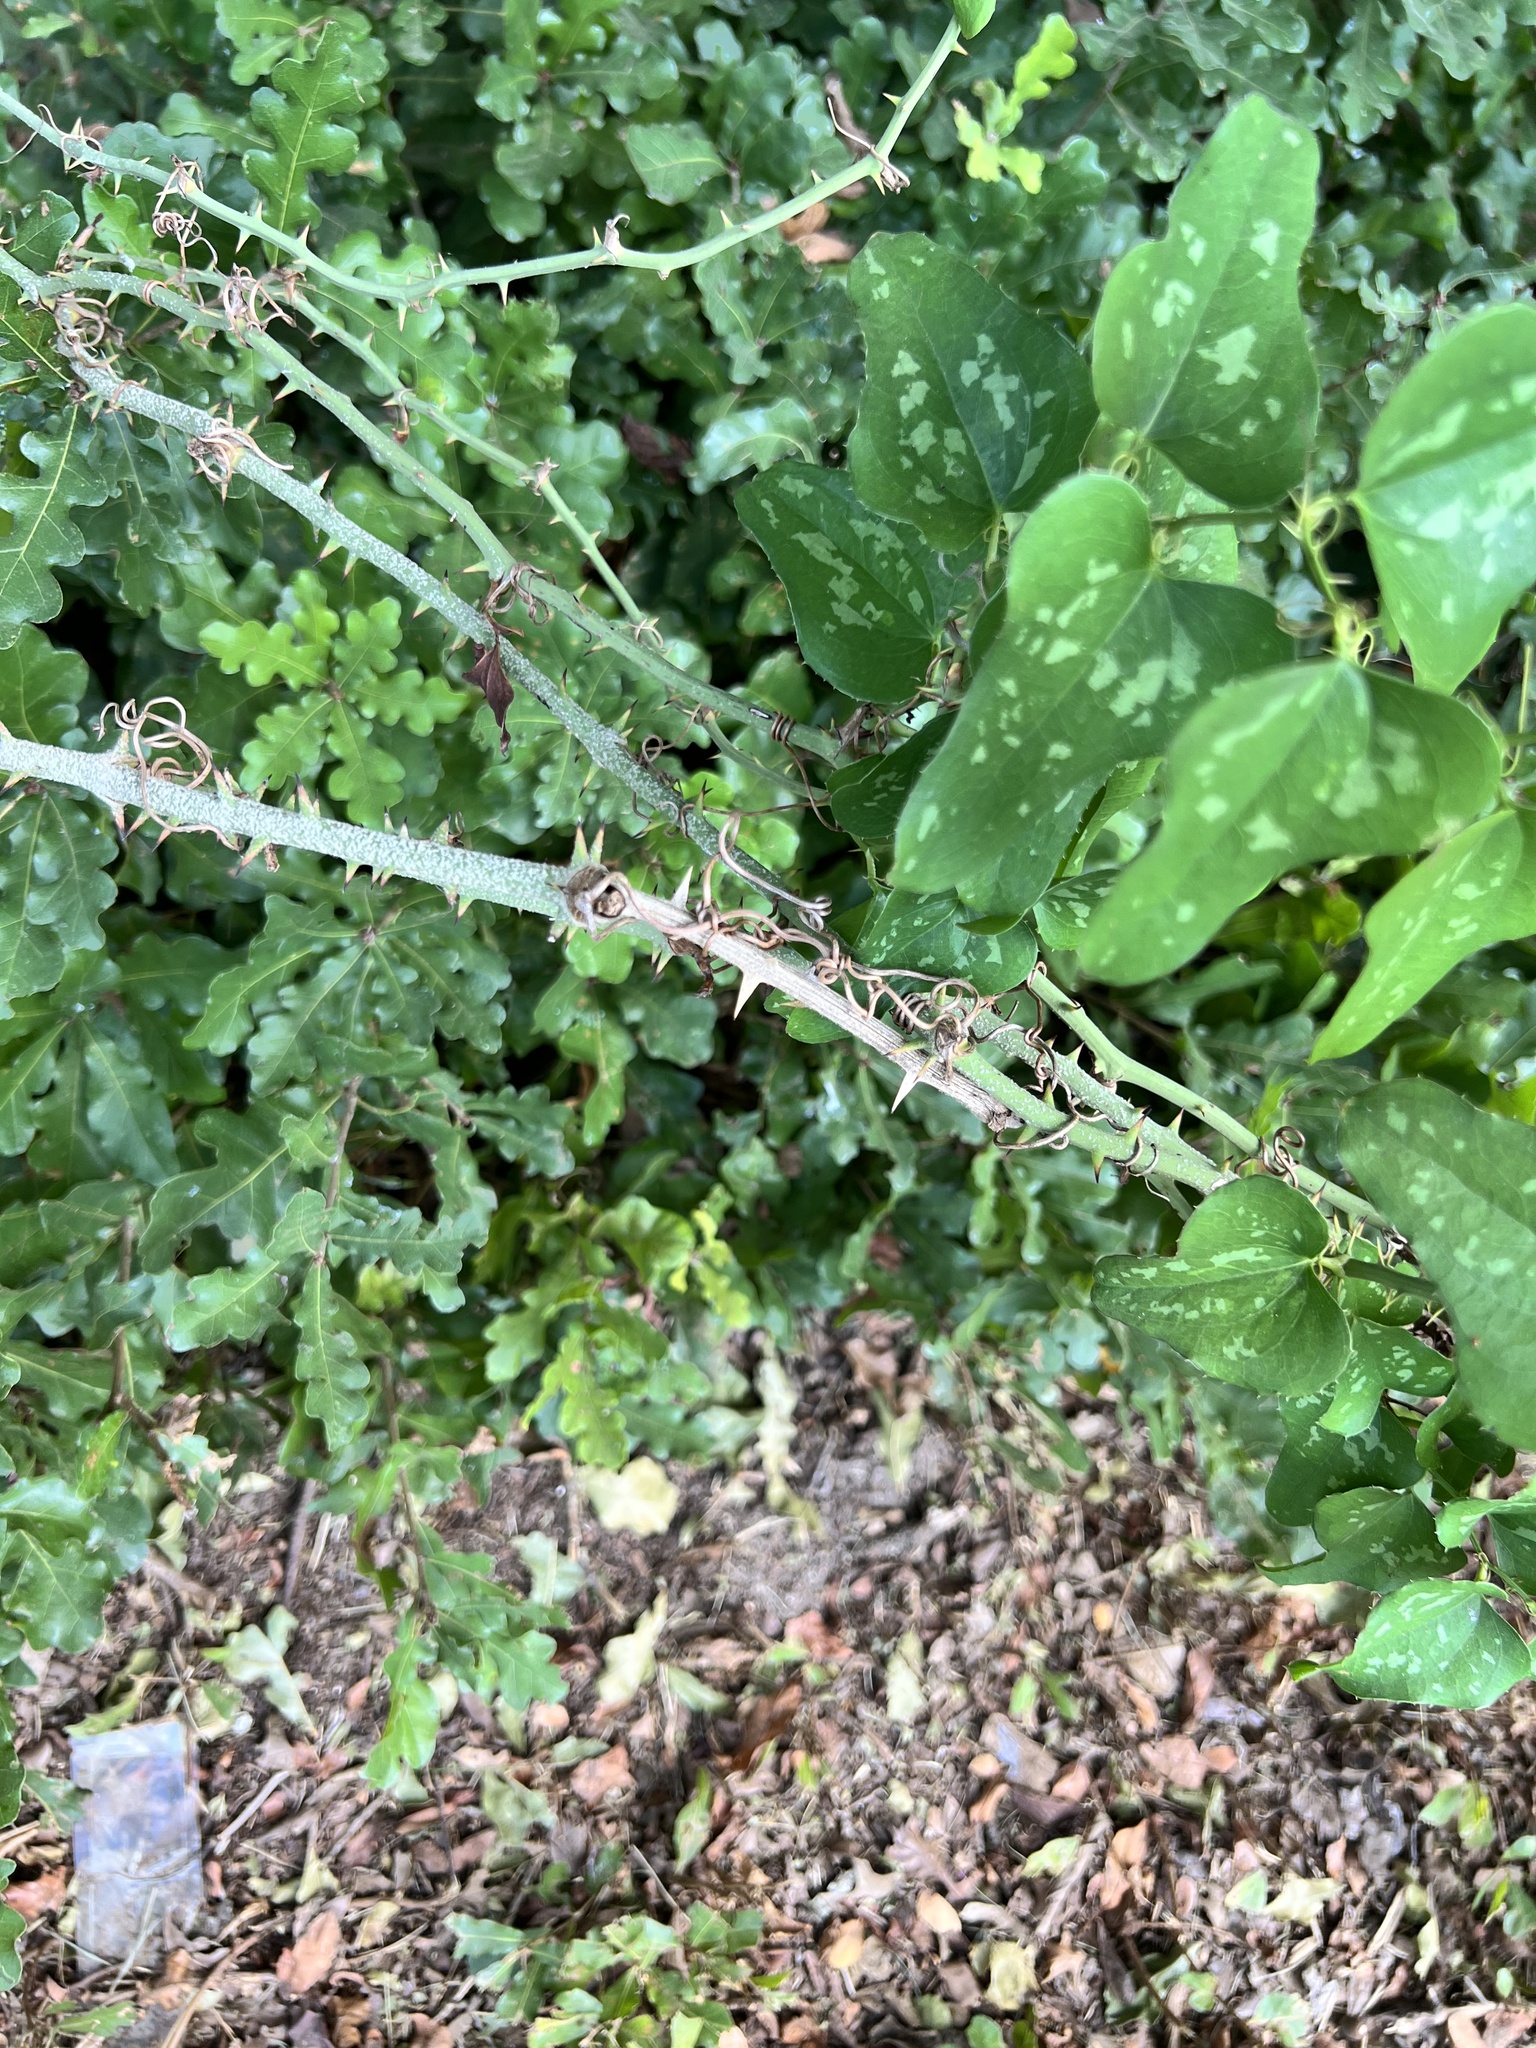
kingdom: Plantae
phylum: Tracheophyta
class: Liliopsida
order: Liliales
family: Smilacaceae
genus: Smilax
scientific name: Smilax bona-nox
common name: Catbrier
